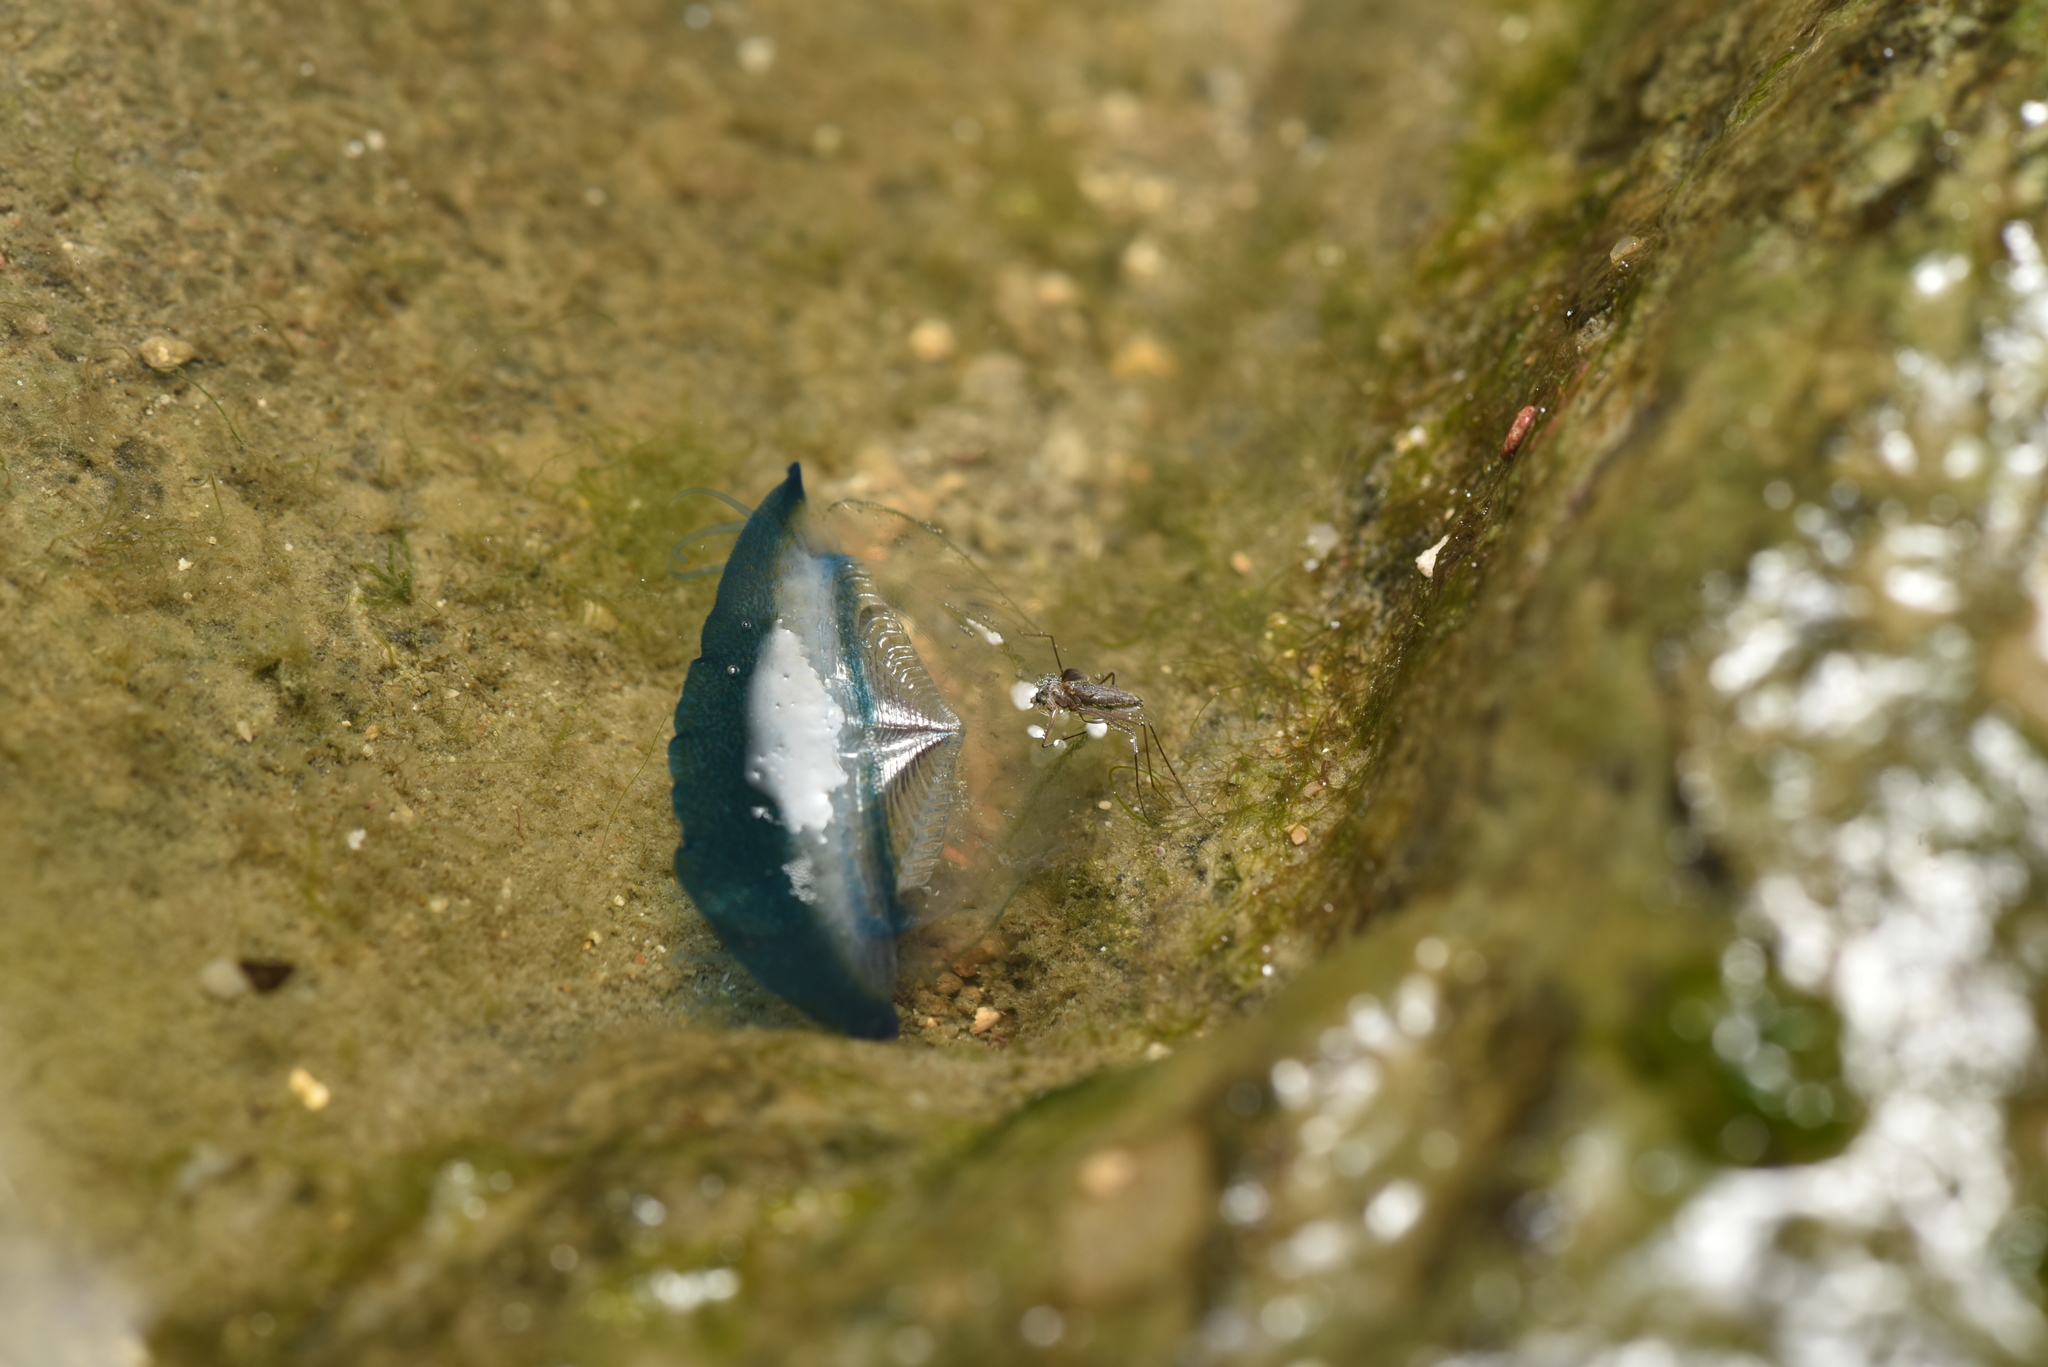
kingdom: Animalia
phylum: Cnidaria
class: Hydrozoa
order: Anthoathecata
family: Porpitidae
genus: Velella
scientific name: Velella velella
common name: By-the-wind-sailor
